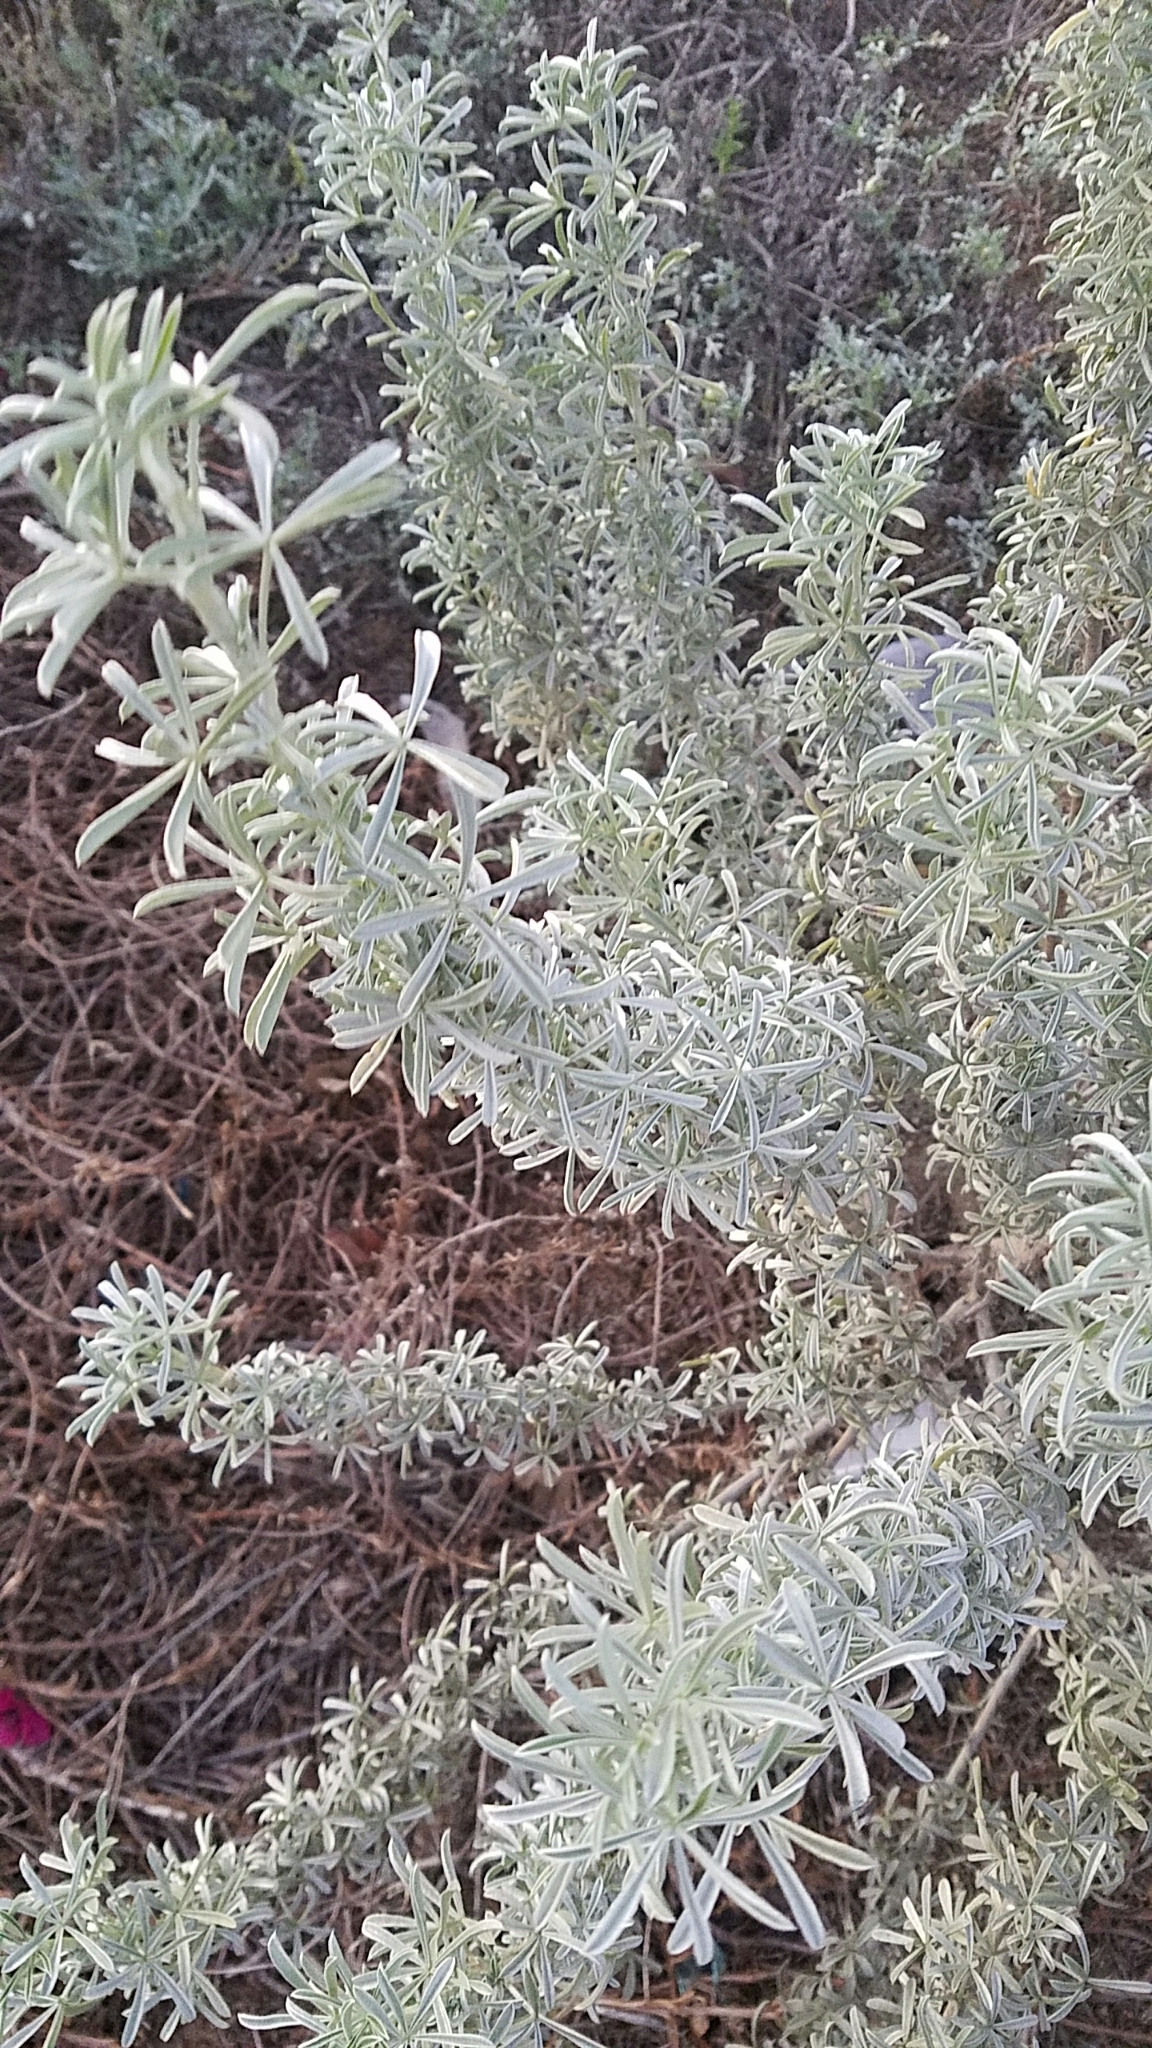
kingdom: Plantae
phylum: Tracheophyta
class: Magnoliopsida
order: Fabales
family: Fabaceae
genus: Lupinus
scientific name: Lupinus chamissonis
